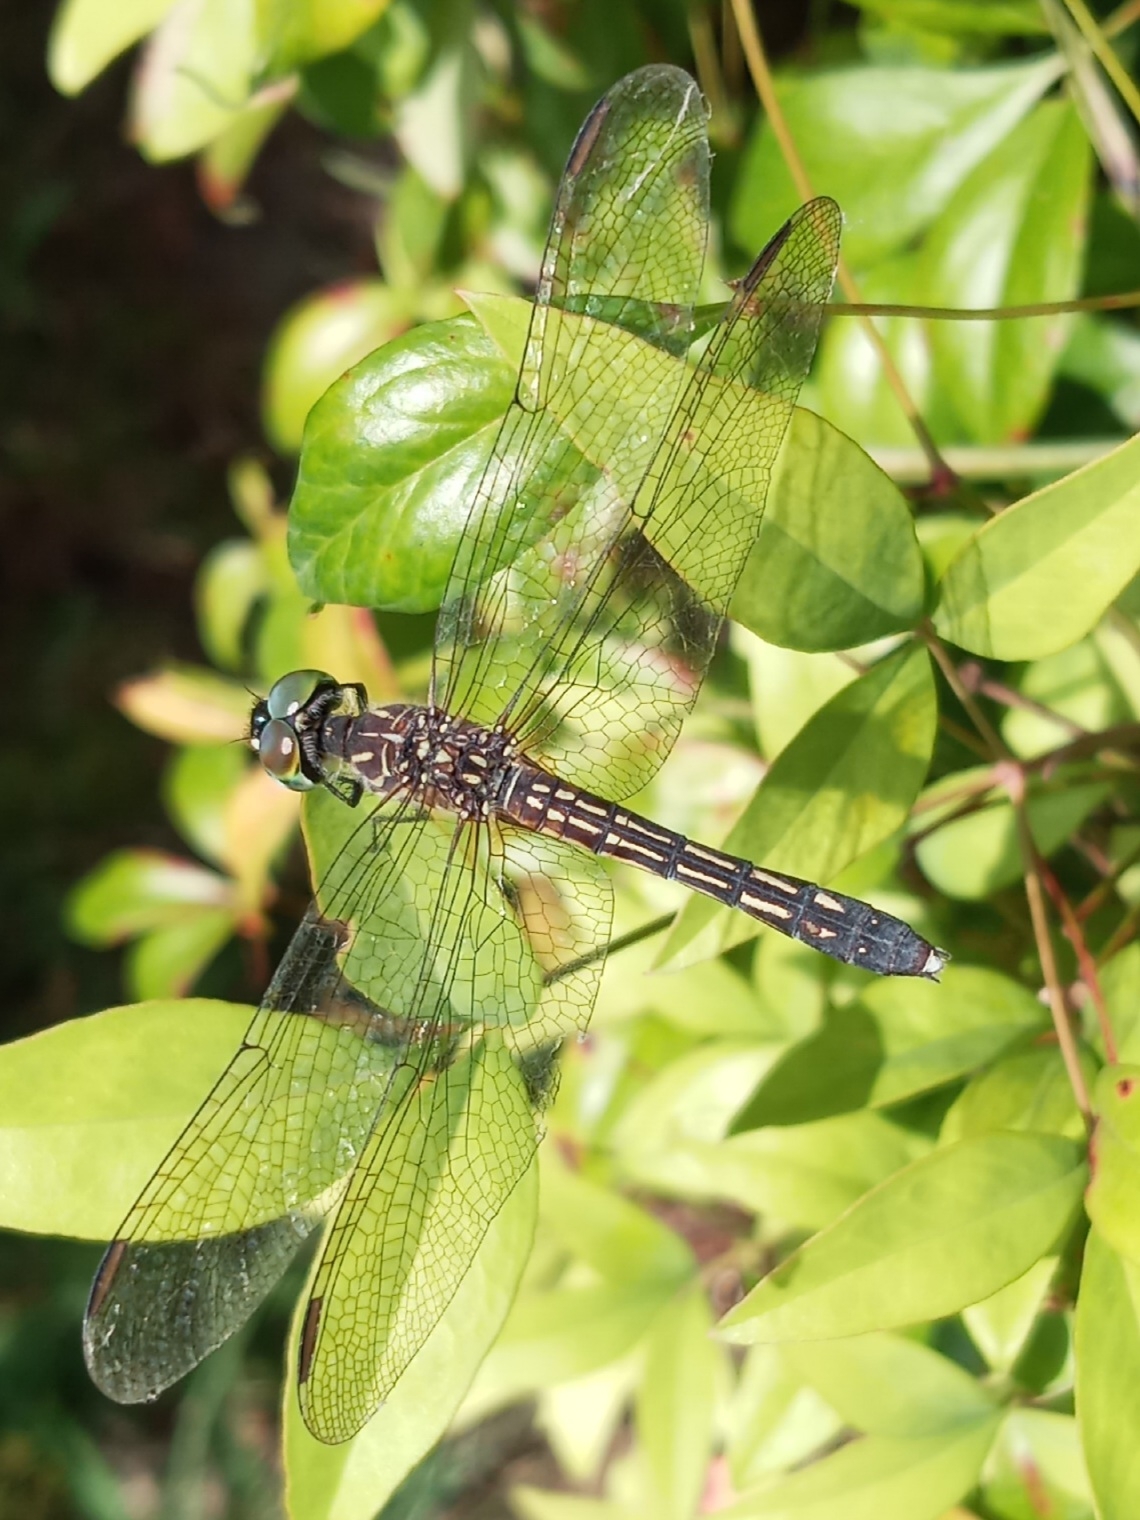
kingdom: Animalia
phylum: Arthropoda
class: Insecta
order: Odonata
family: Libellulidae
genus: Pachydiplax
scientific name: Pachydiplax longipennis
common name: Blue dasher
